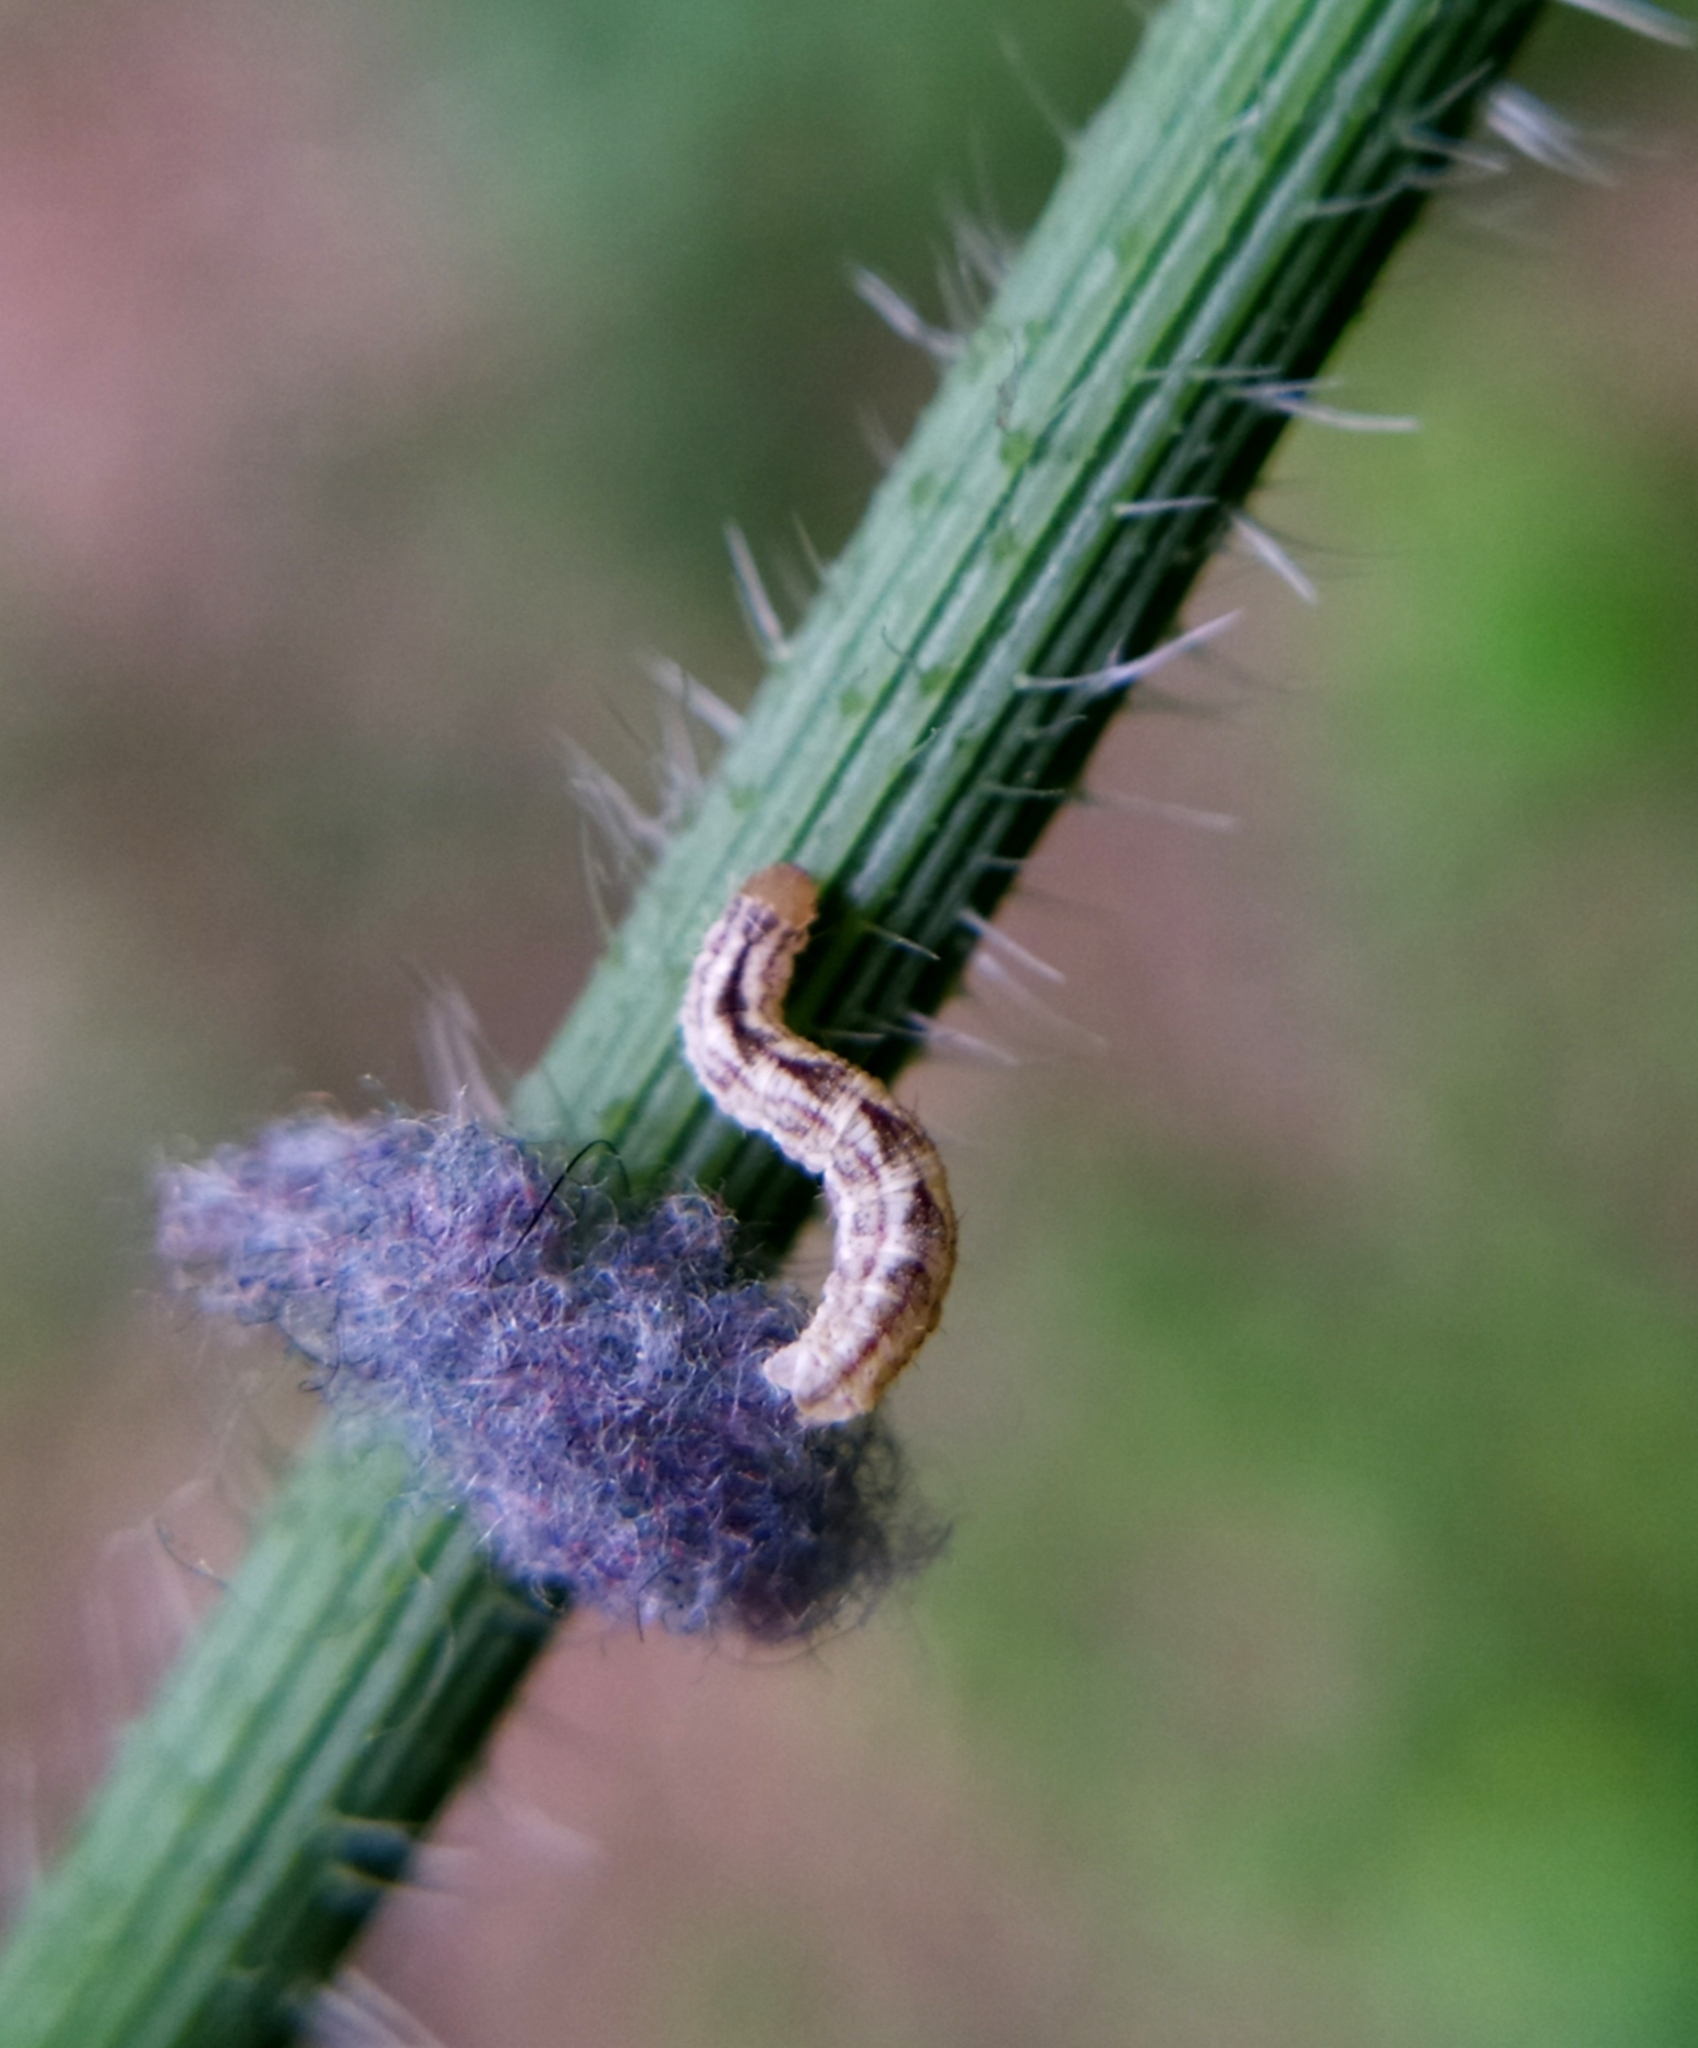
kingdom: Animalia
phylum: Arthropoda
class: Insecta
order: Lepidoptera
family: Geometridae
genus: Gymnoscelis
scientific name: Gymnoscelis rufifasciata
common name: Double-striped pug
